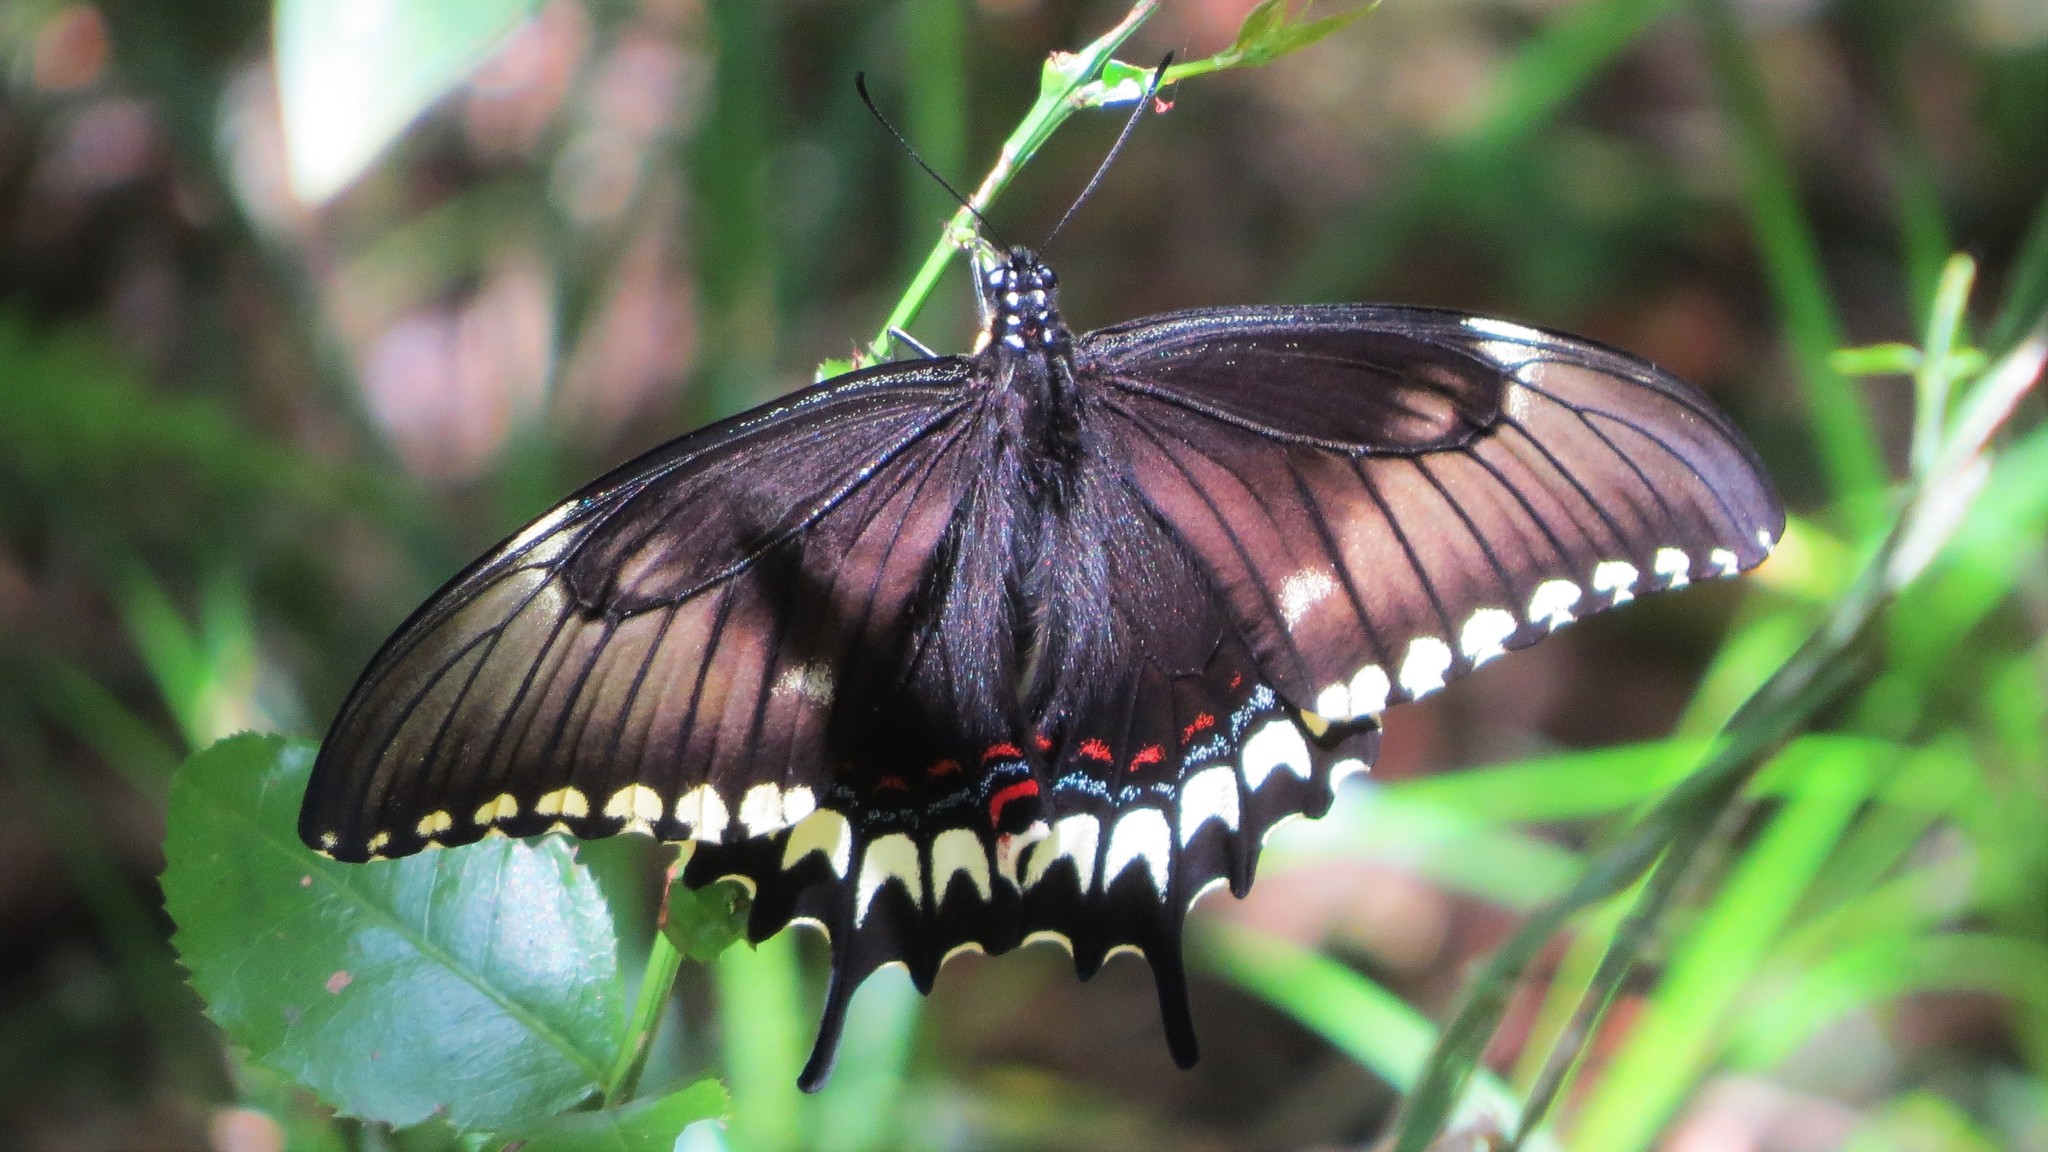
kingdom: Animalia
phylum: Arthropoda
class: Insecta
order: Lepidoptera
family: Papilionidae
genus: Papilio
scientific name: Papilio astyalus
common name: Astyalus swallowtail
